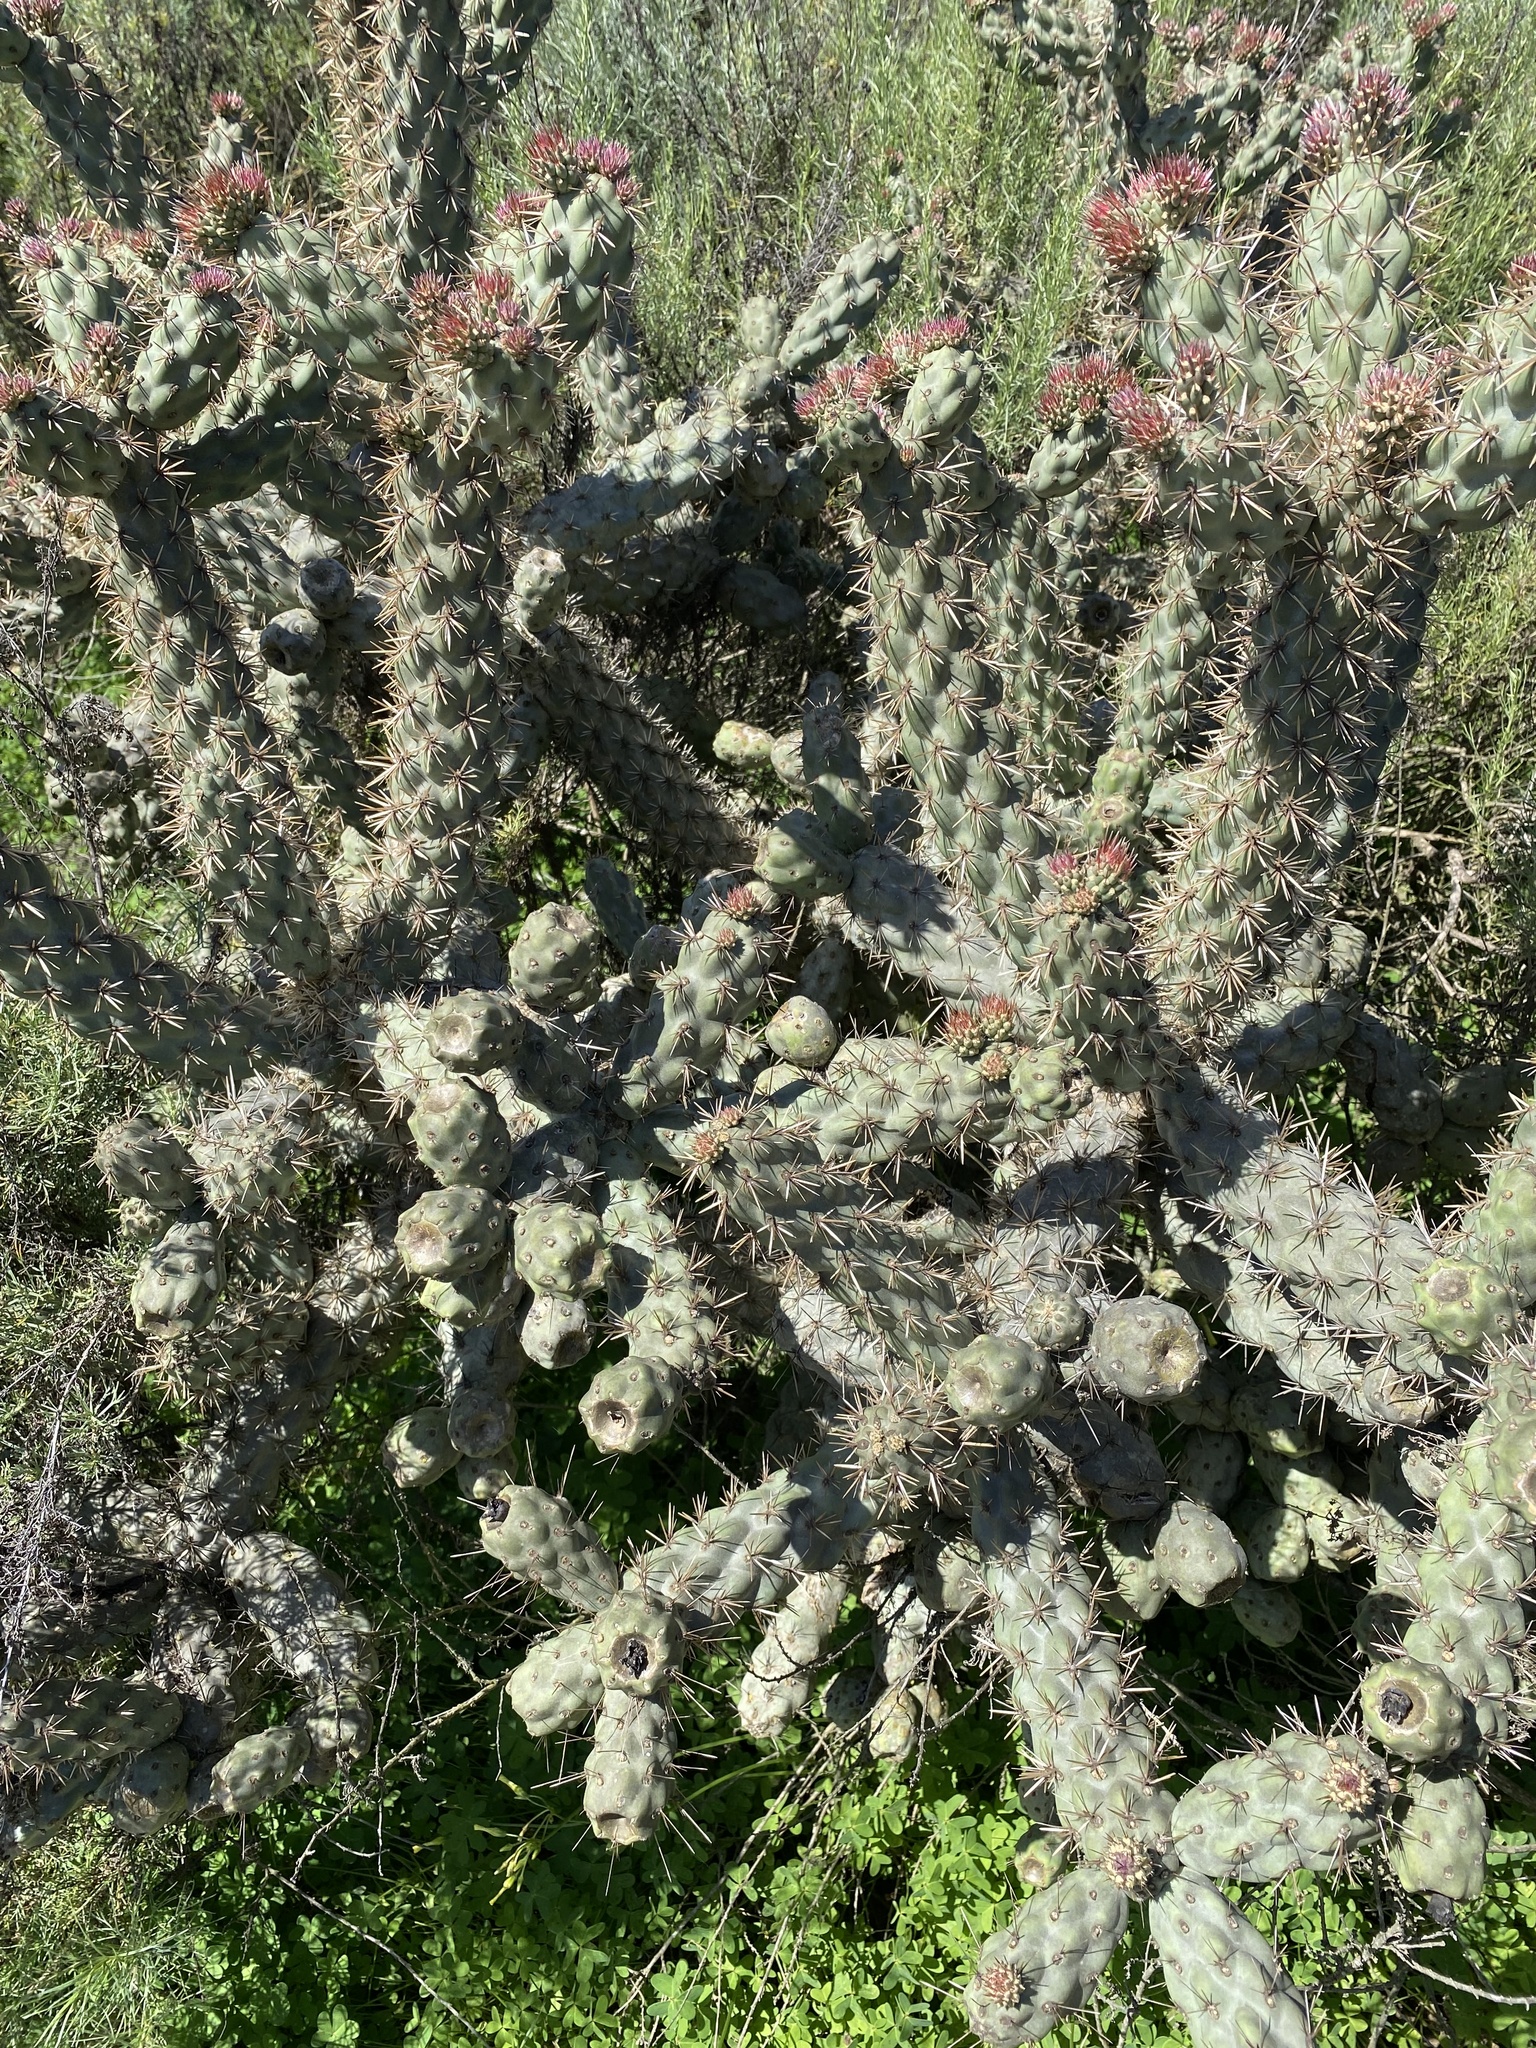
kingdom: Plantae
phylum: Tracheophyta
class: Magnoliopsida
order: Caryophyllales
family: Cactaceae
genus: Cylindropuntia
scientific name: Cylindropuntia prolifera
